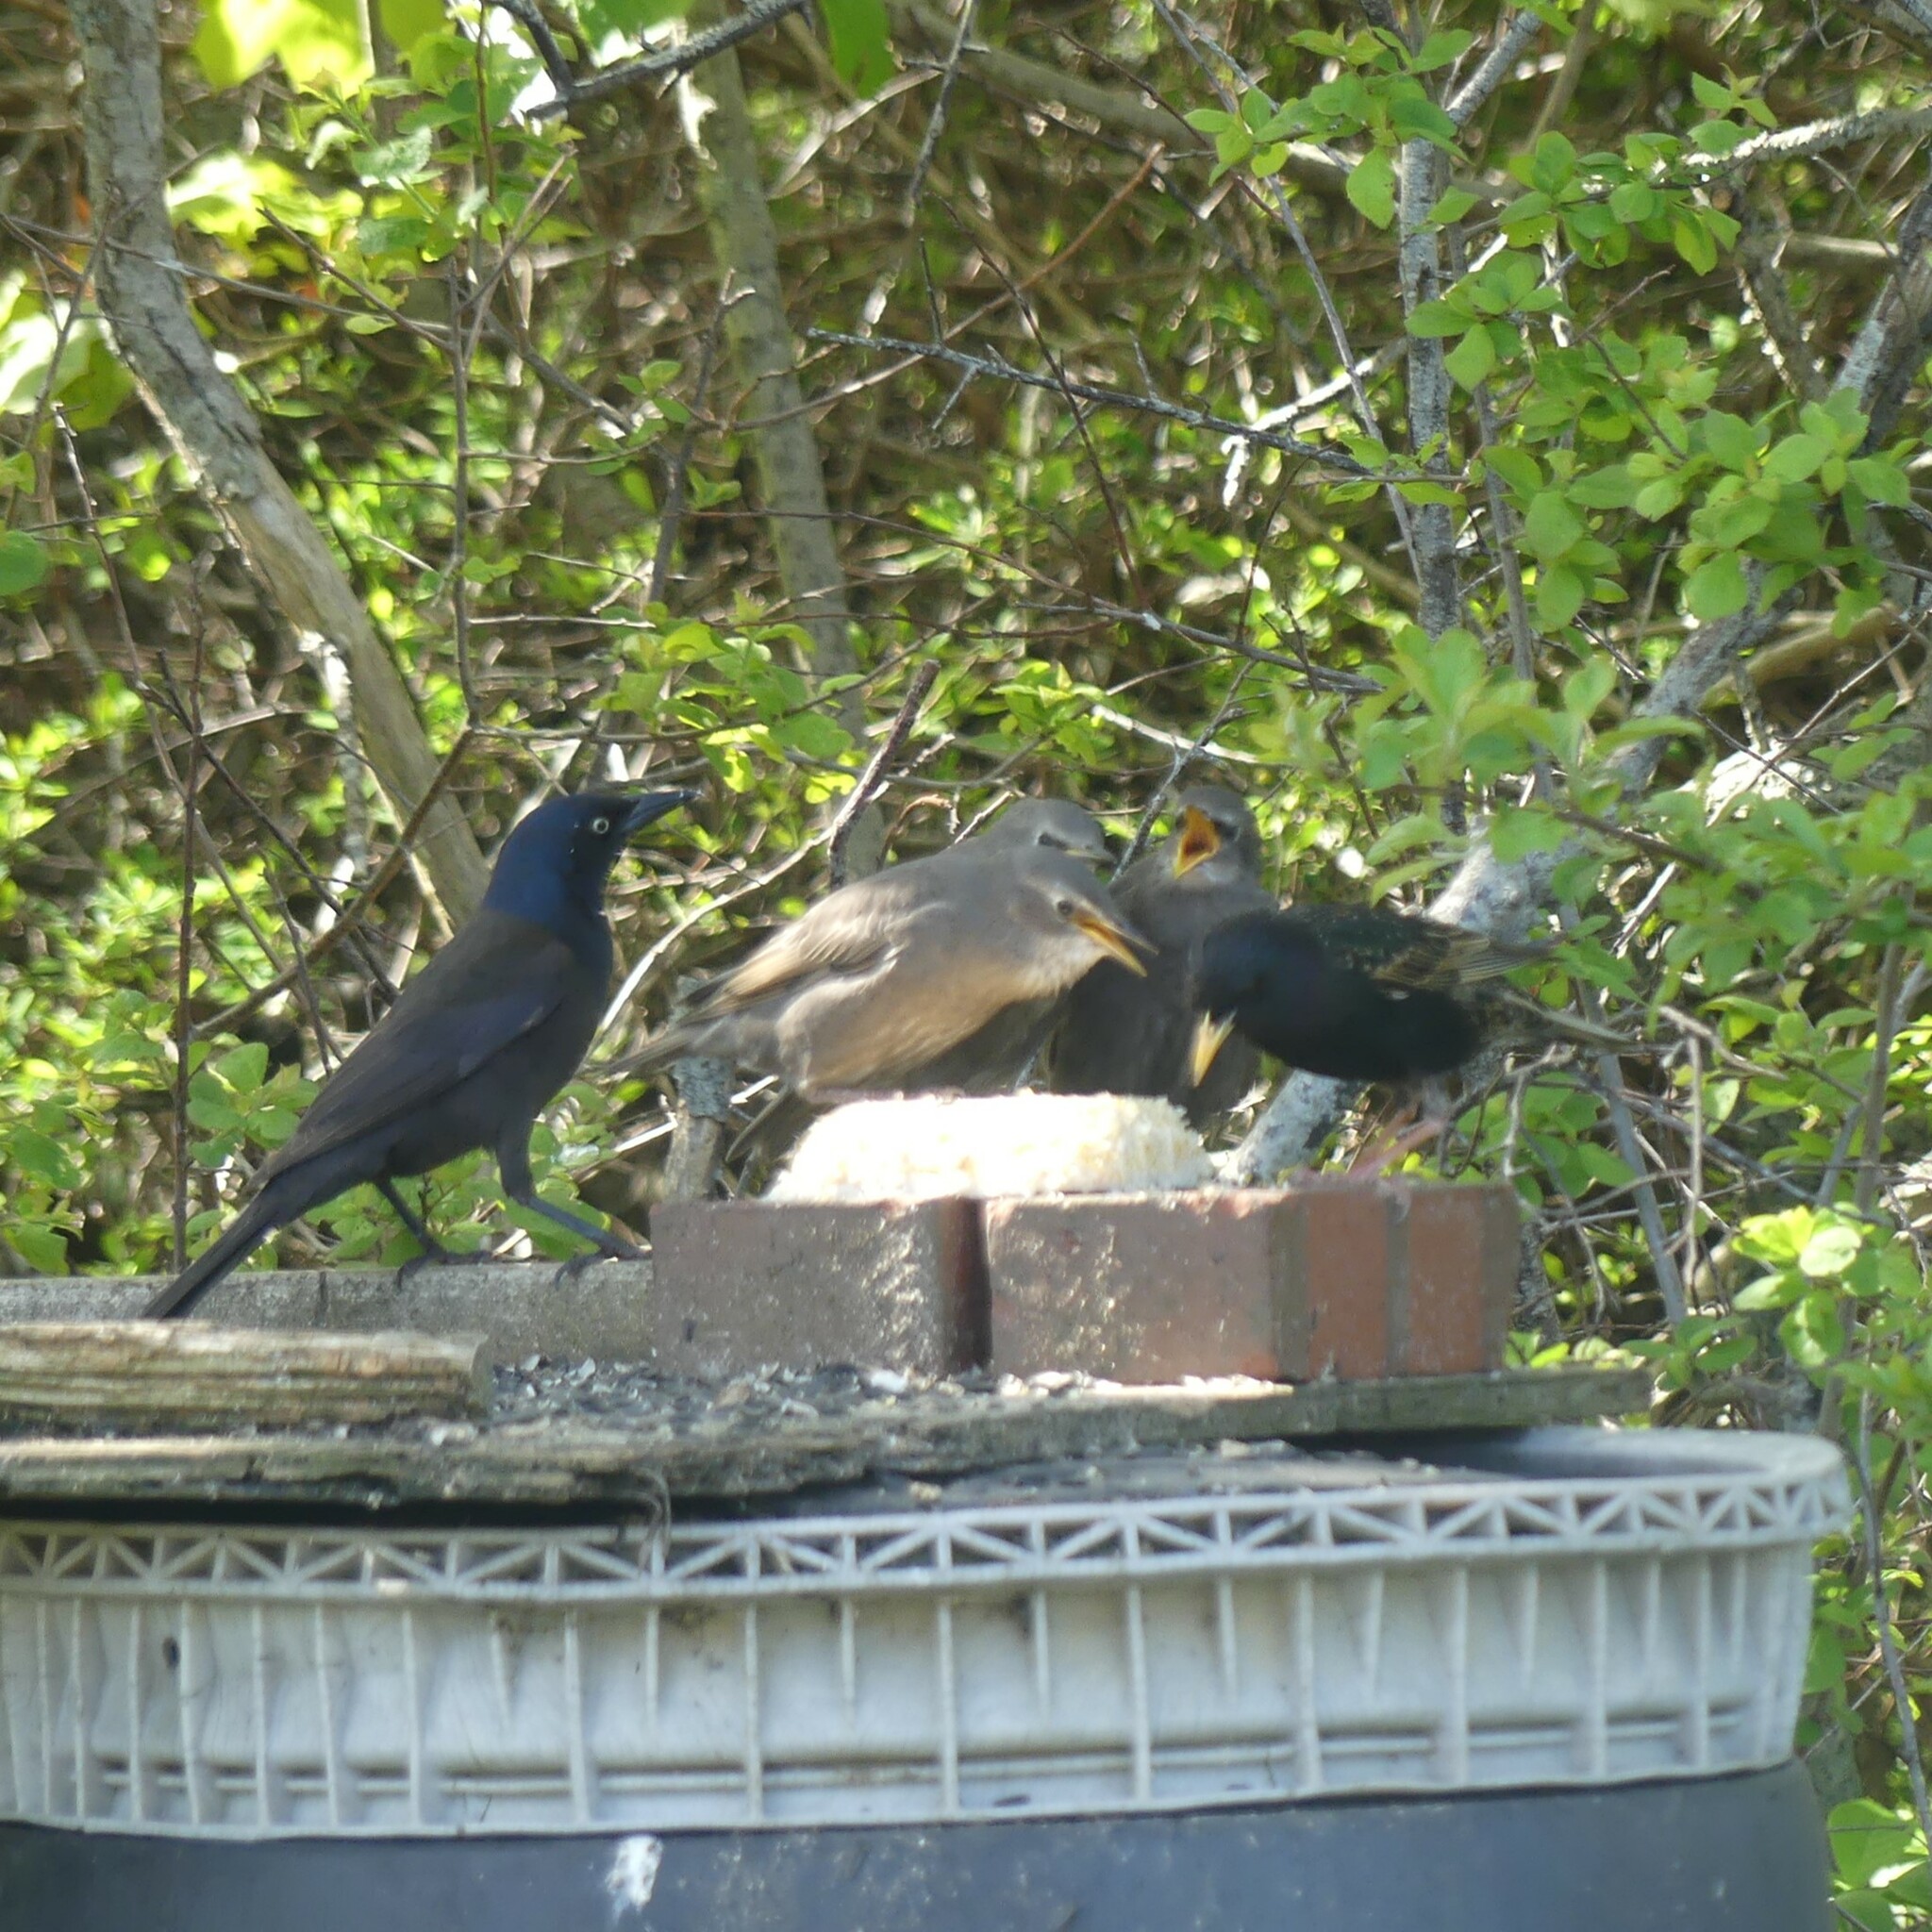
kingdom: Animalia
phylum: Chordata
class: Aves
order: Passeriformes
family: Sturnidae
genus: Sturnus
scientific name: Sturnus vulgaris
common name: Common starling
